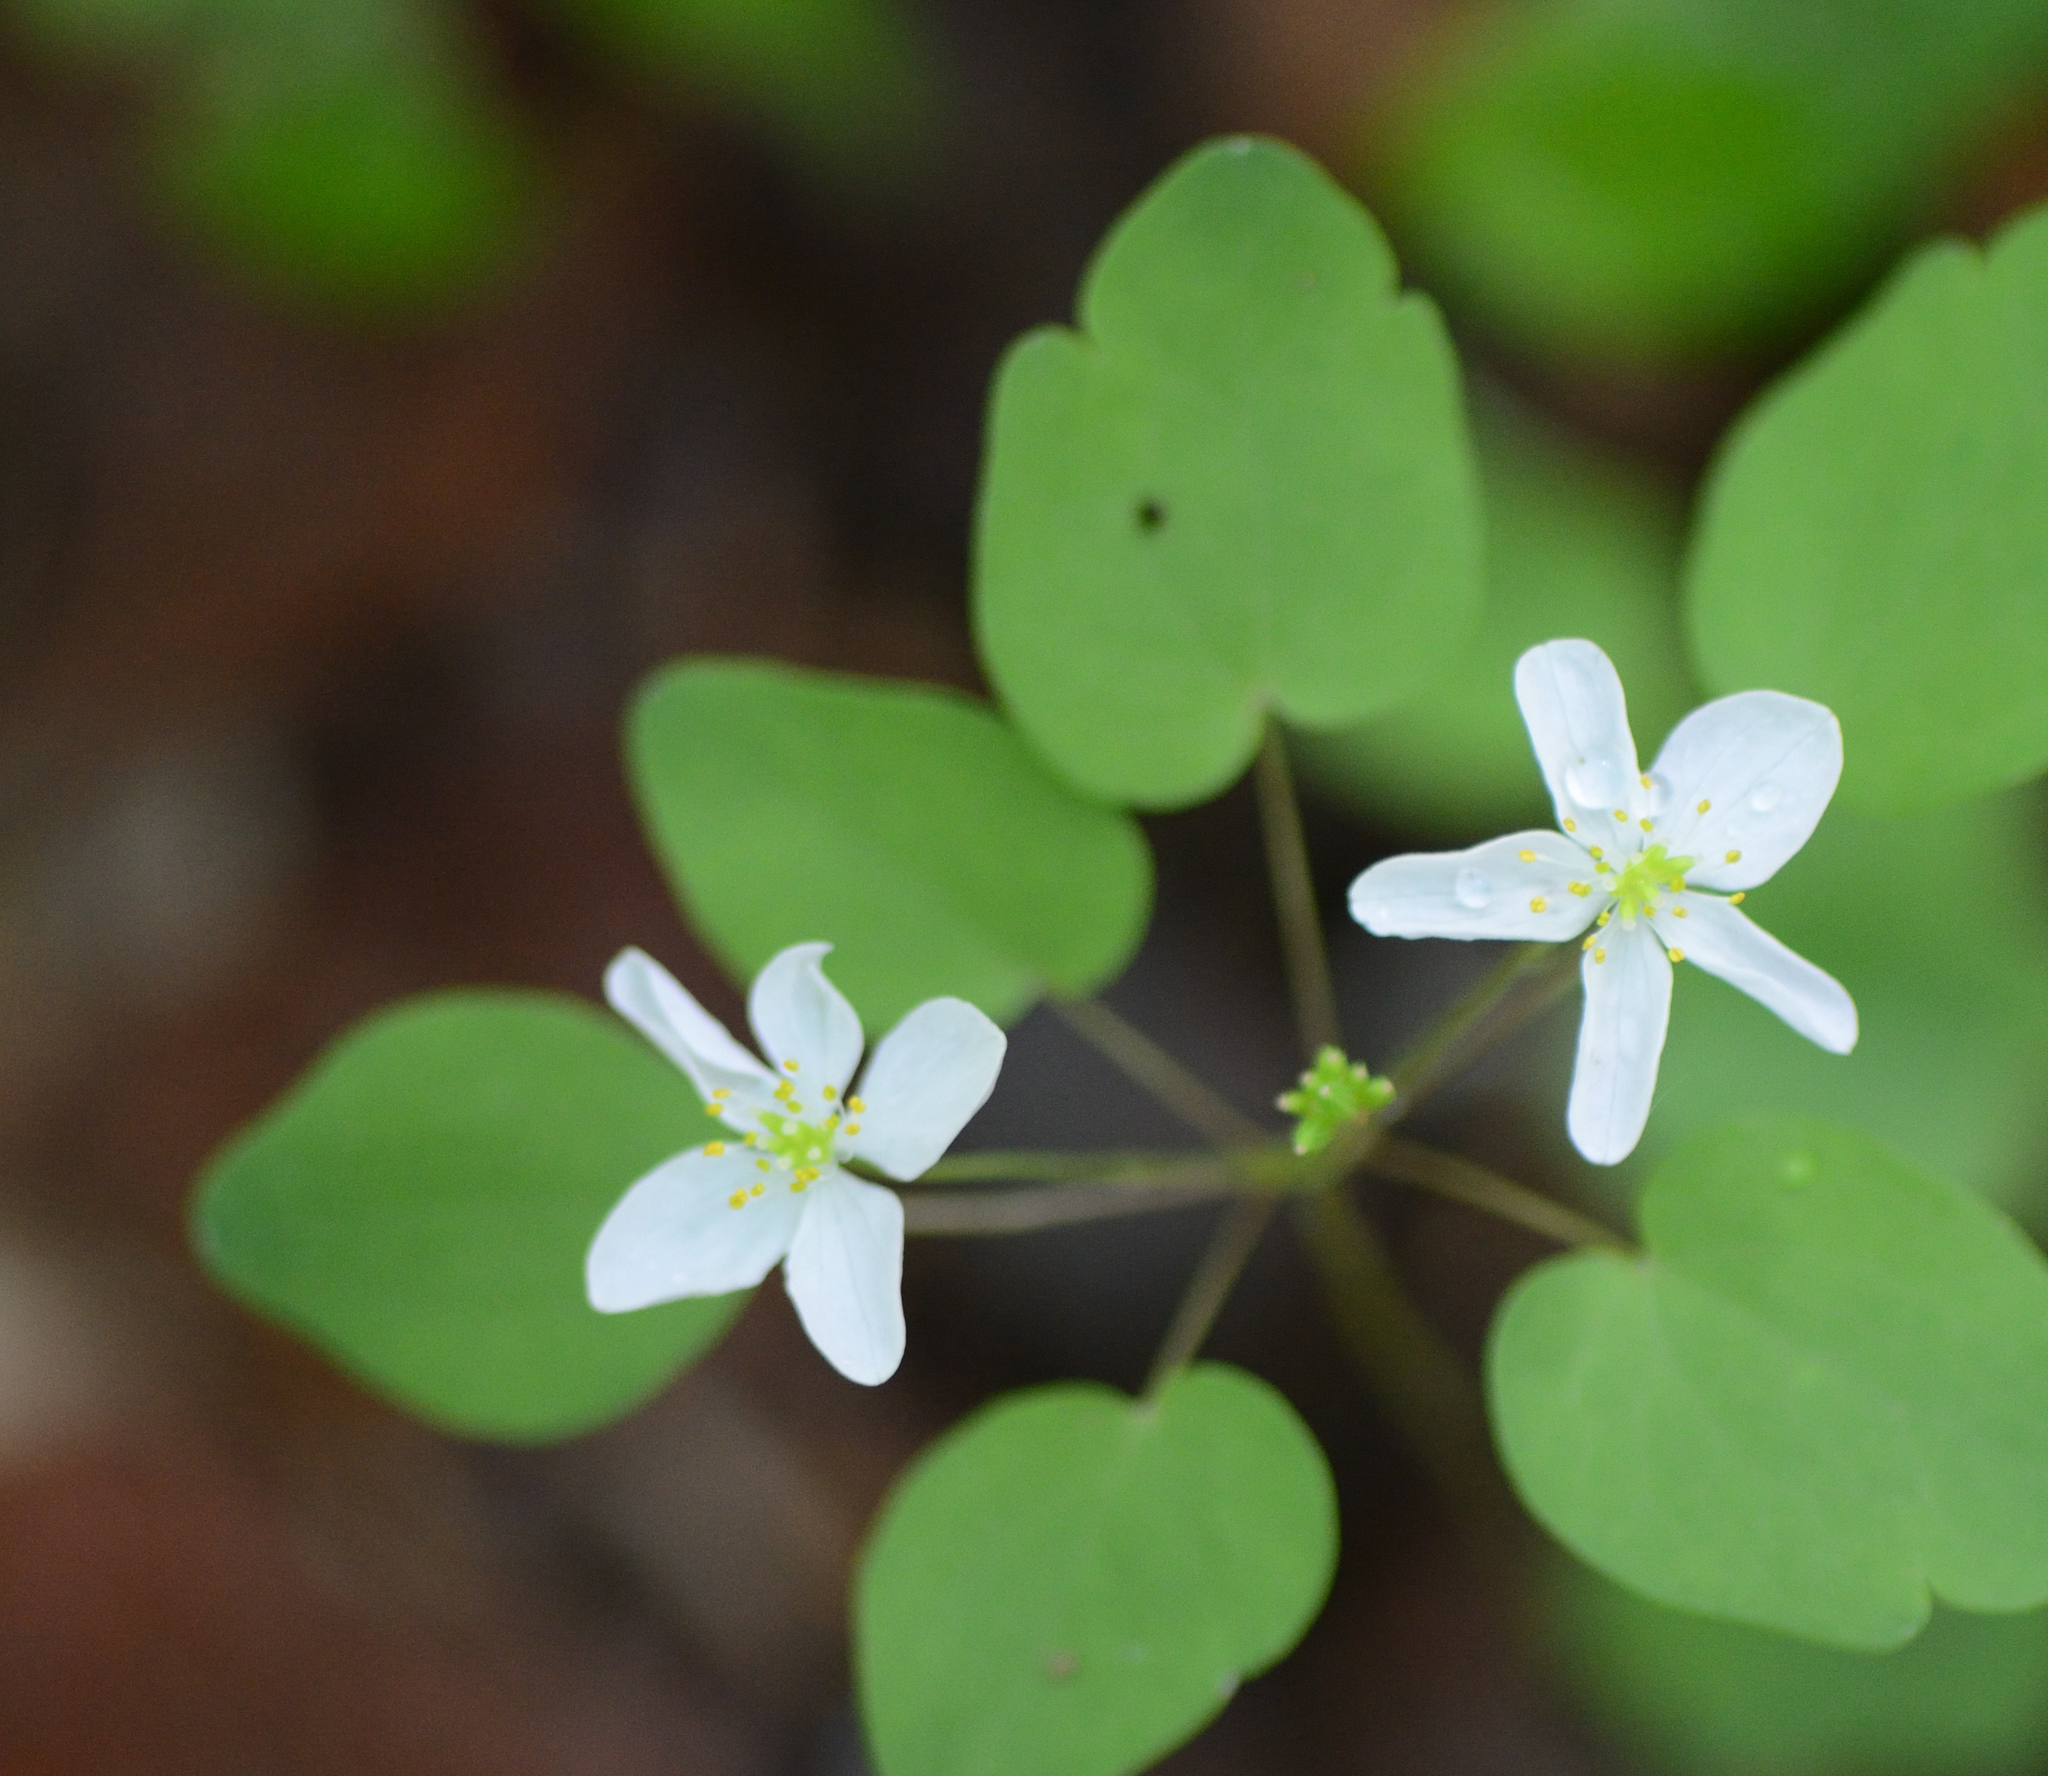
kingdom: Plantae
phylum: Tracheophyta
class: Magnoliopsida
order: Ranunculales
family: Ranunculaceae
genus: Thalictrum
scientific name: Thalictrum thalictroides
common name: Rue-anemone
